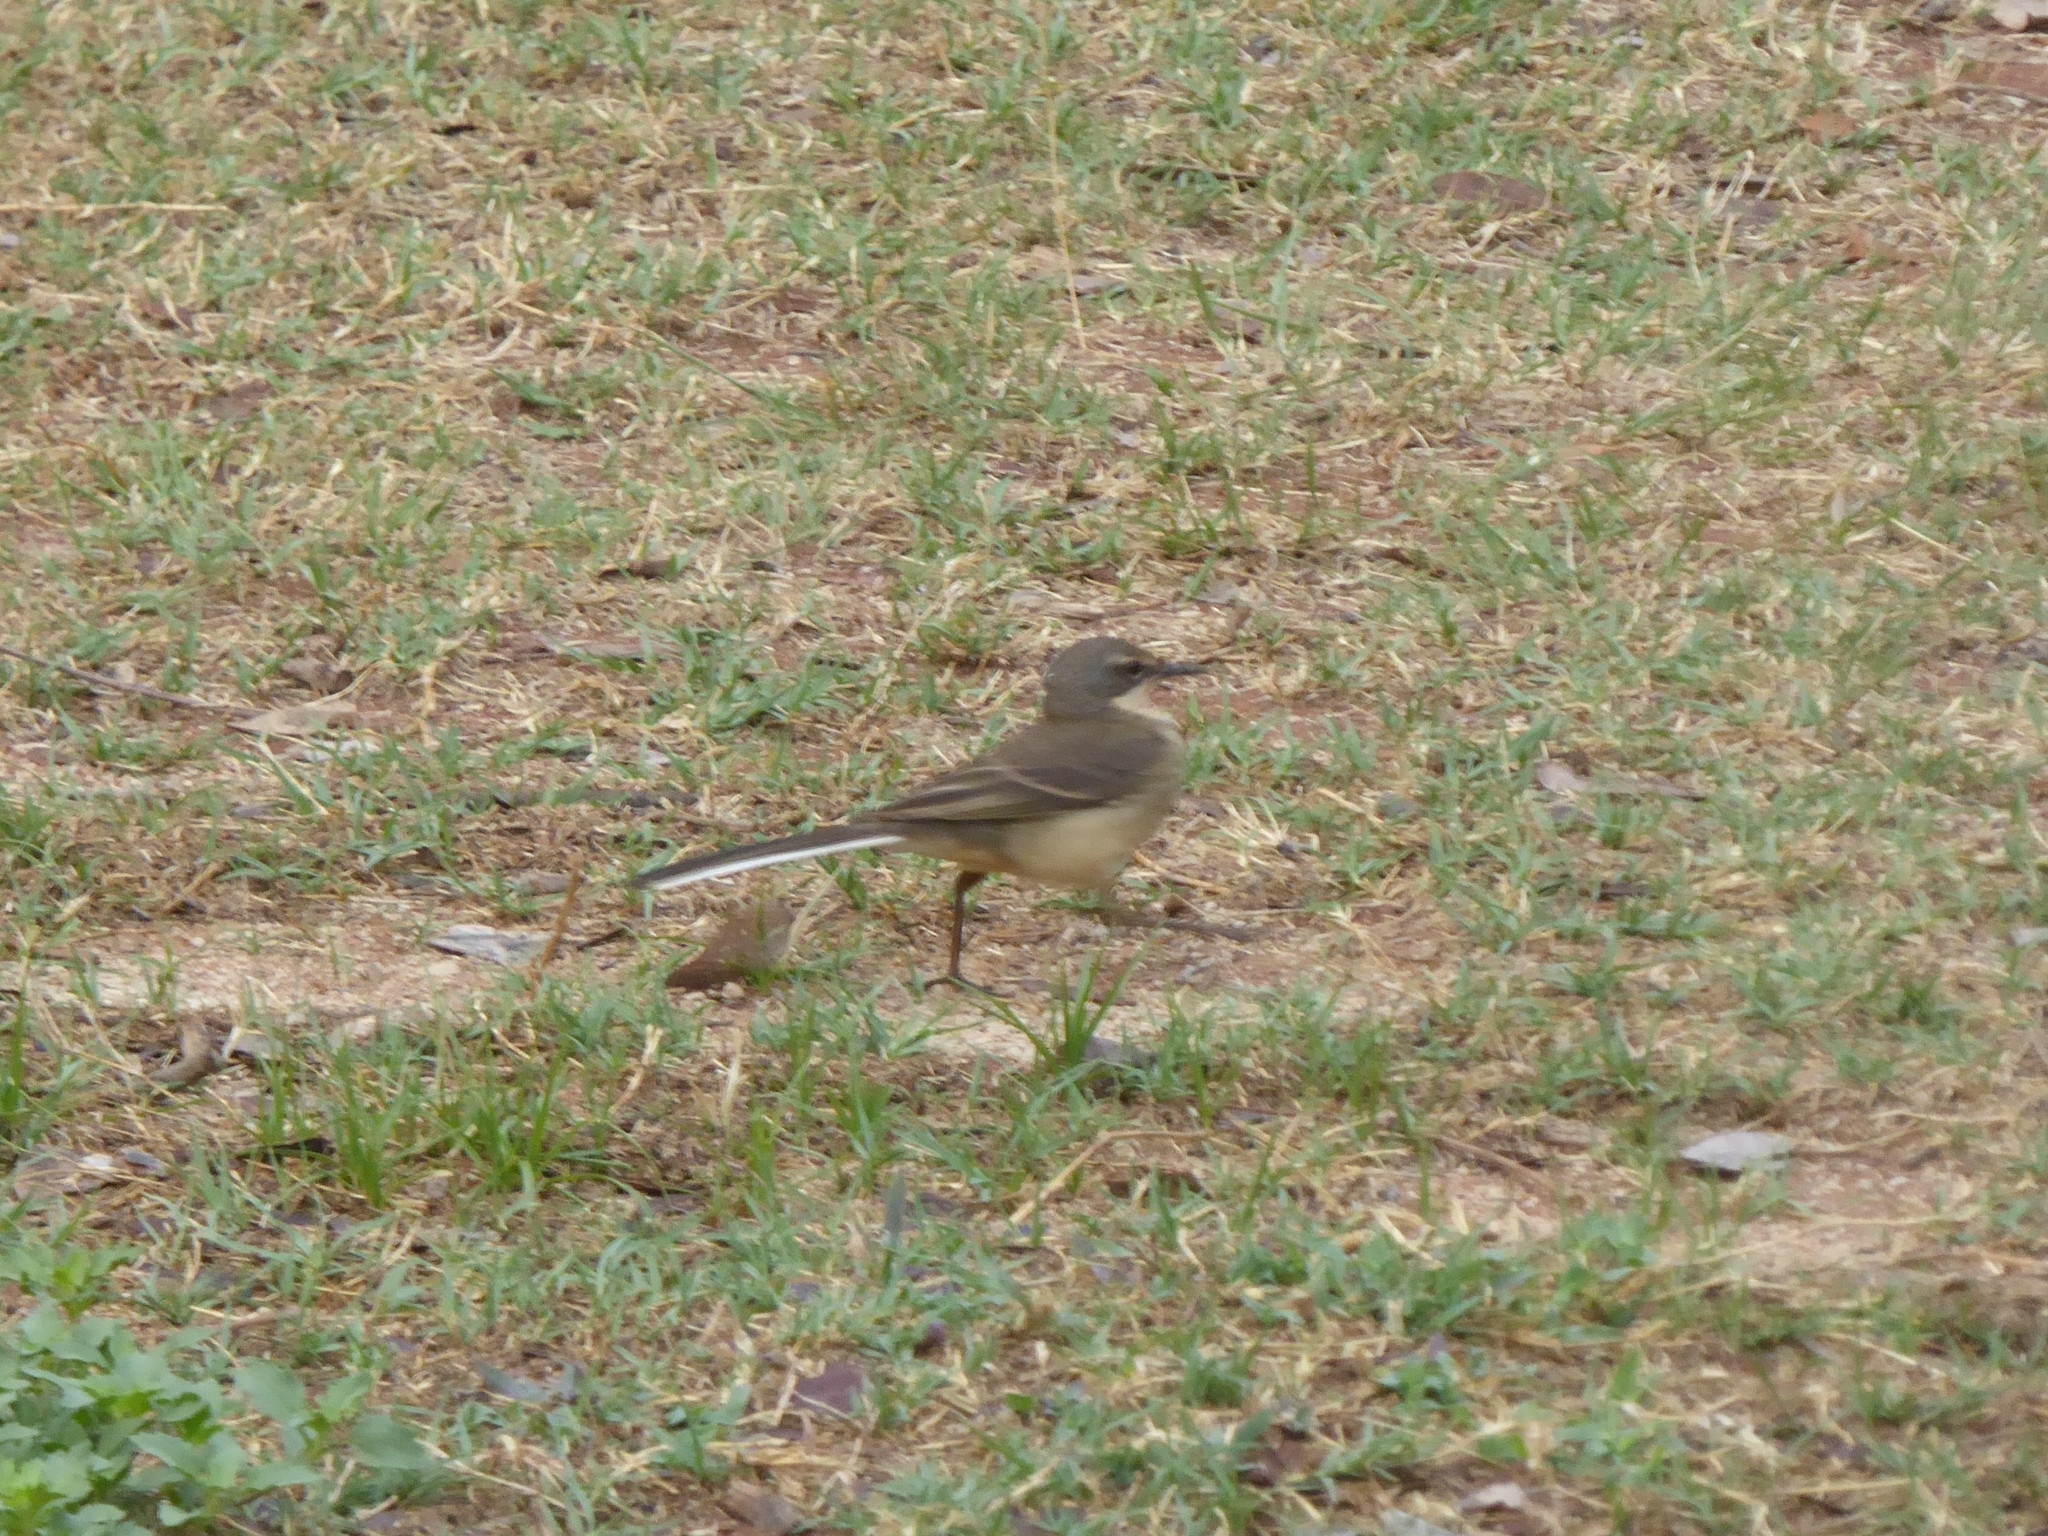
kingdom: Animalia
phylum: Chordata
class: Aves
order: Passeriformes
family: Motacillidae
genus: Motacilla
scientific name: Motacilla capensis
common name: Cape wagtail
